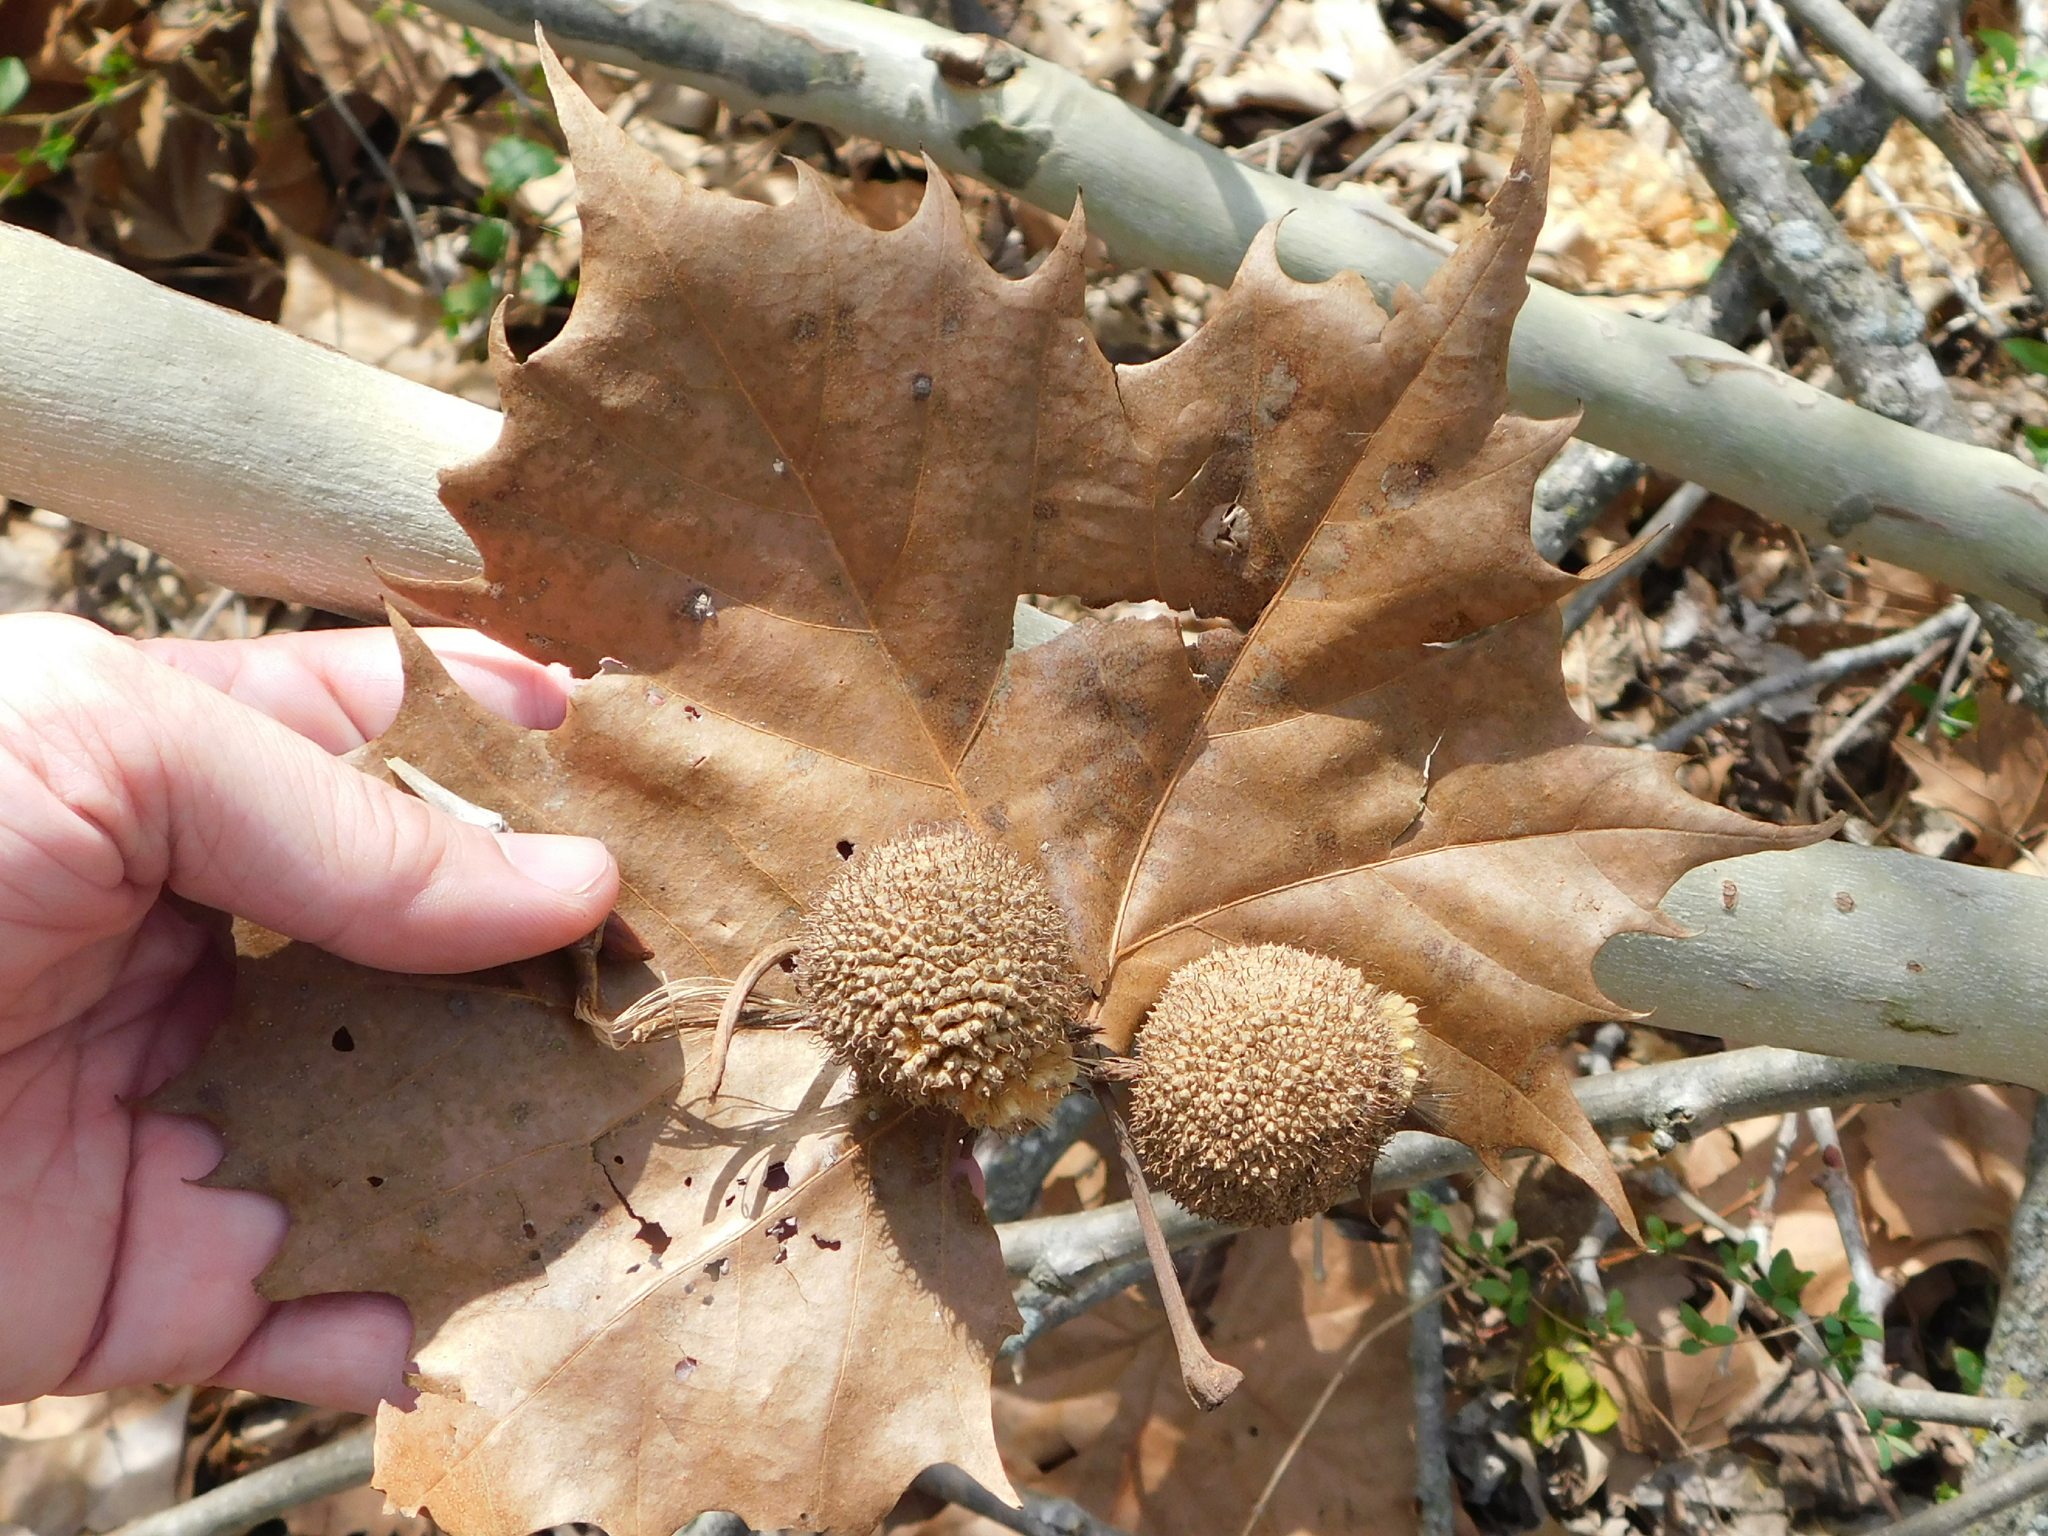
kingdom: Plantae
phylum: Tracheophyta
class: Magnoliopsida
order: Proteales
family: Platanaceae
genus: Platanus
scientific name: Platanus occidentalis
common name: American sycamore
